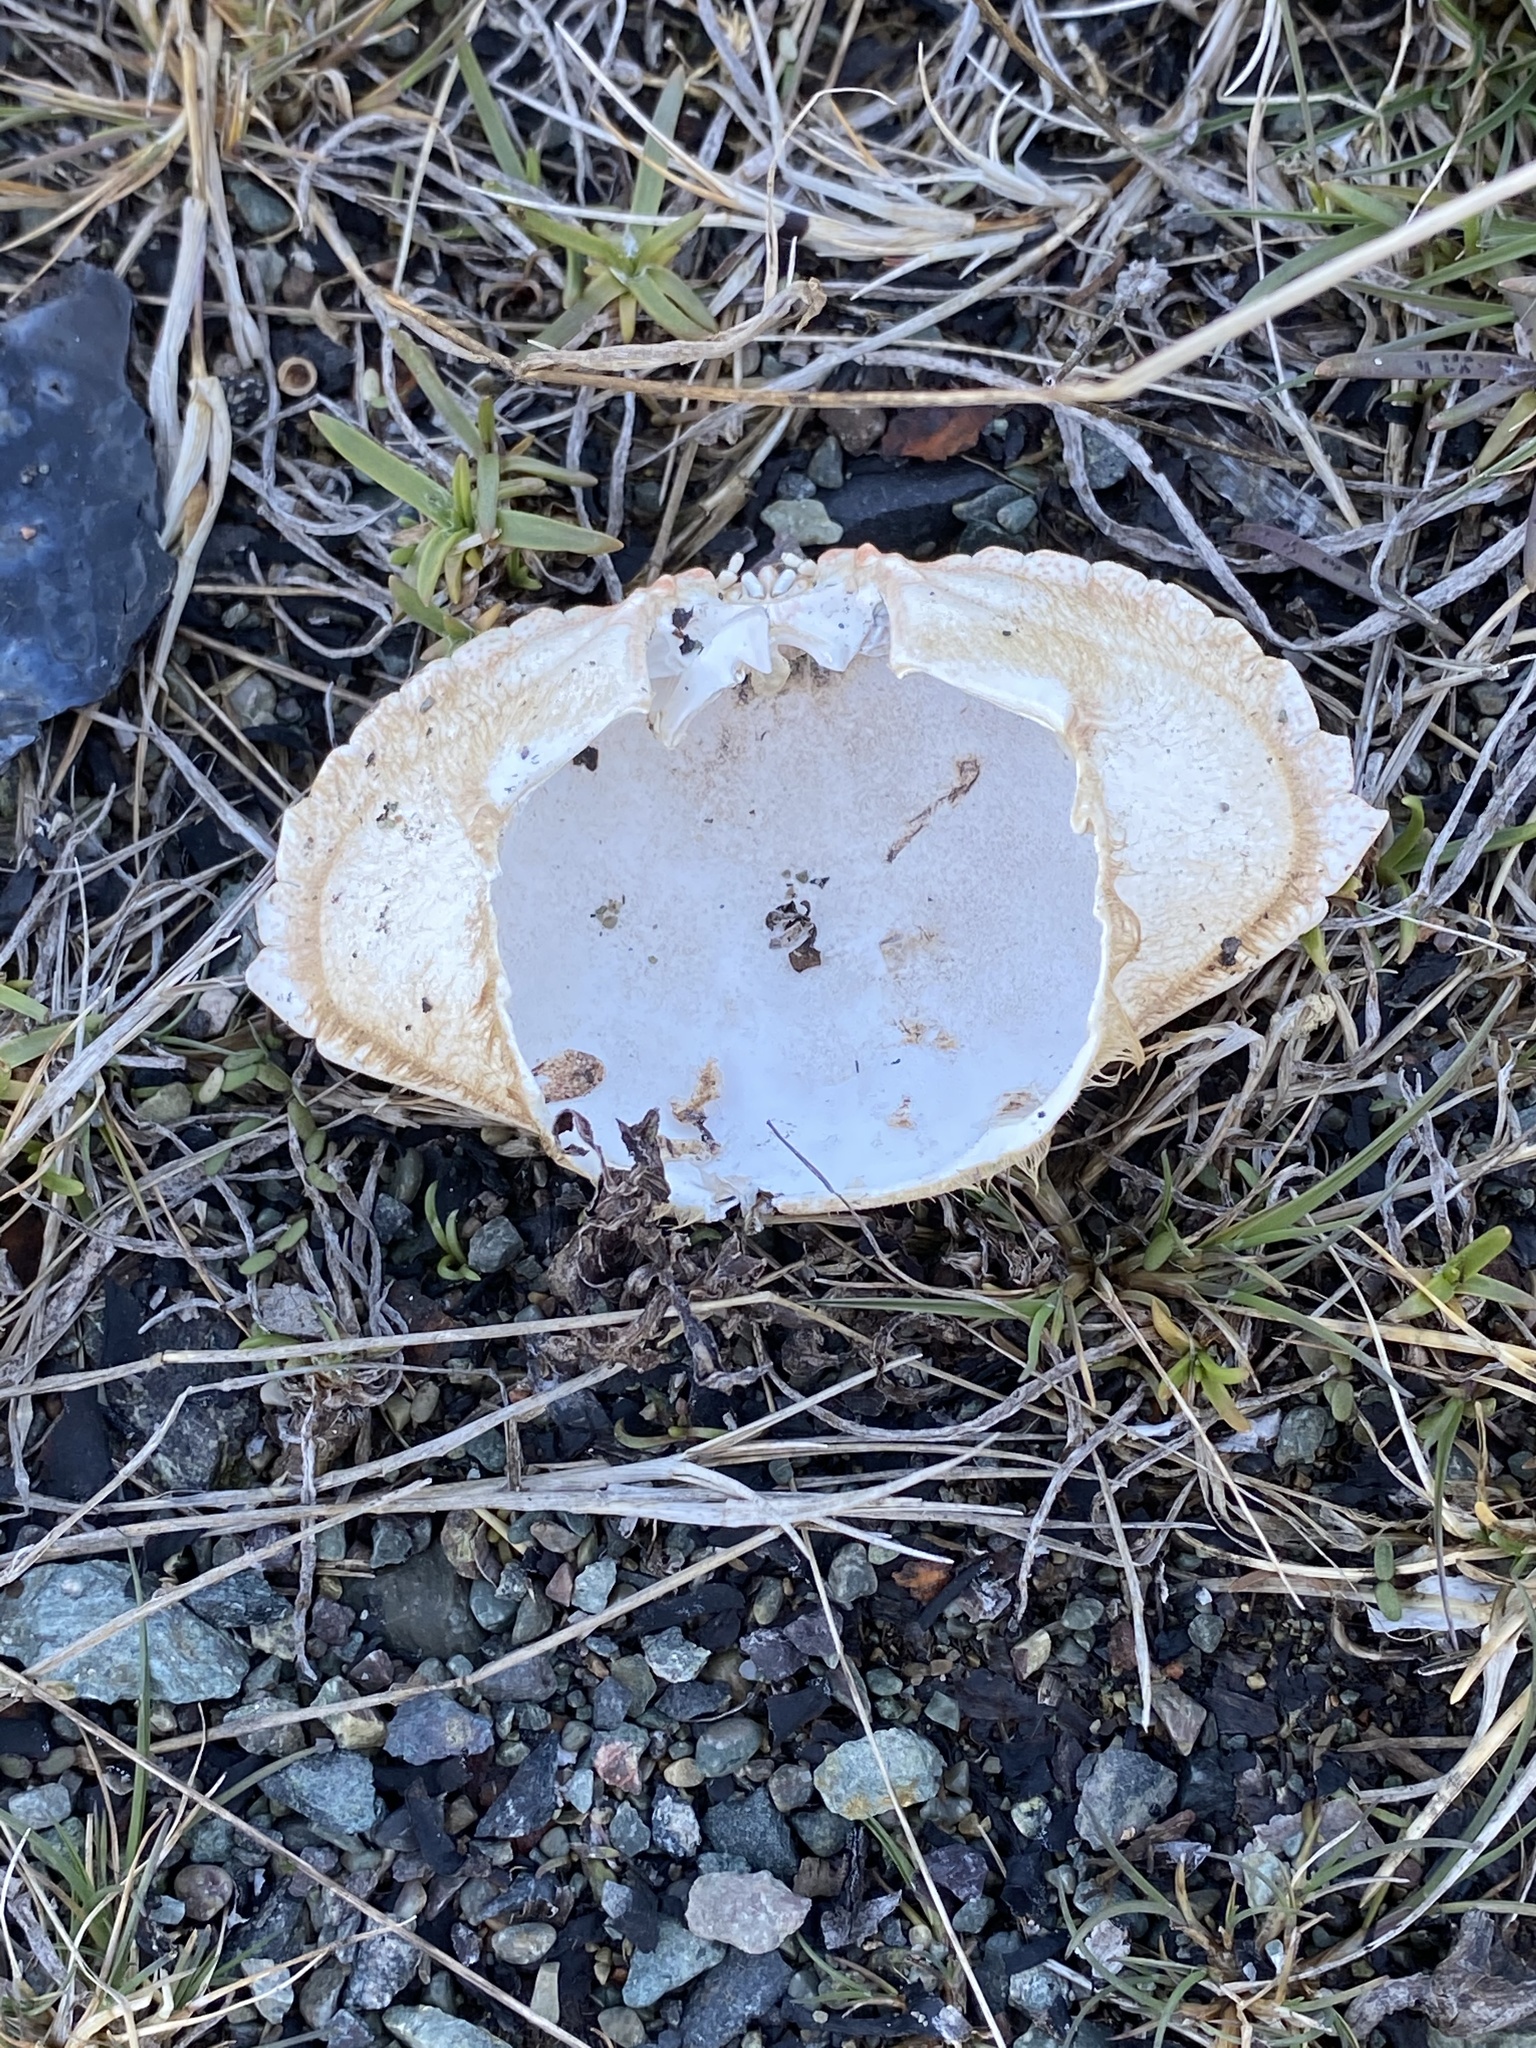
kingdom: Animalia
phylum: Arthropoda
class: Malacostraca
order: Decapoda
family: Cancridae
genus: Cancer
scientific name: Cancer irroratus
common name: Atlantic rock crab
